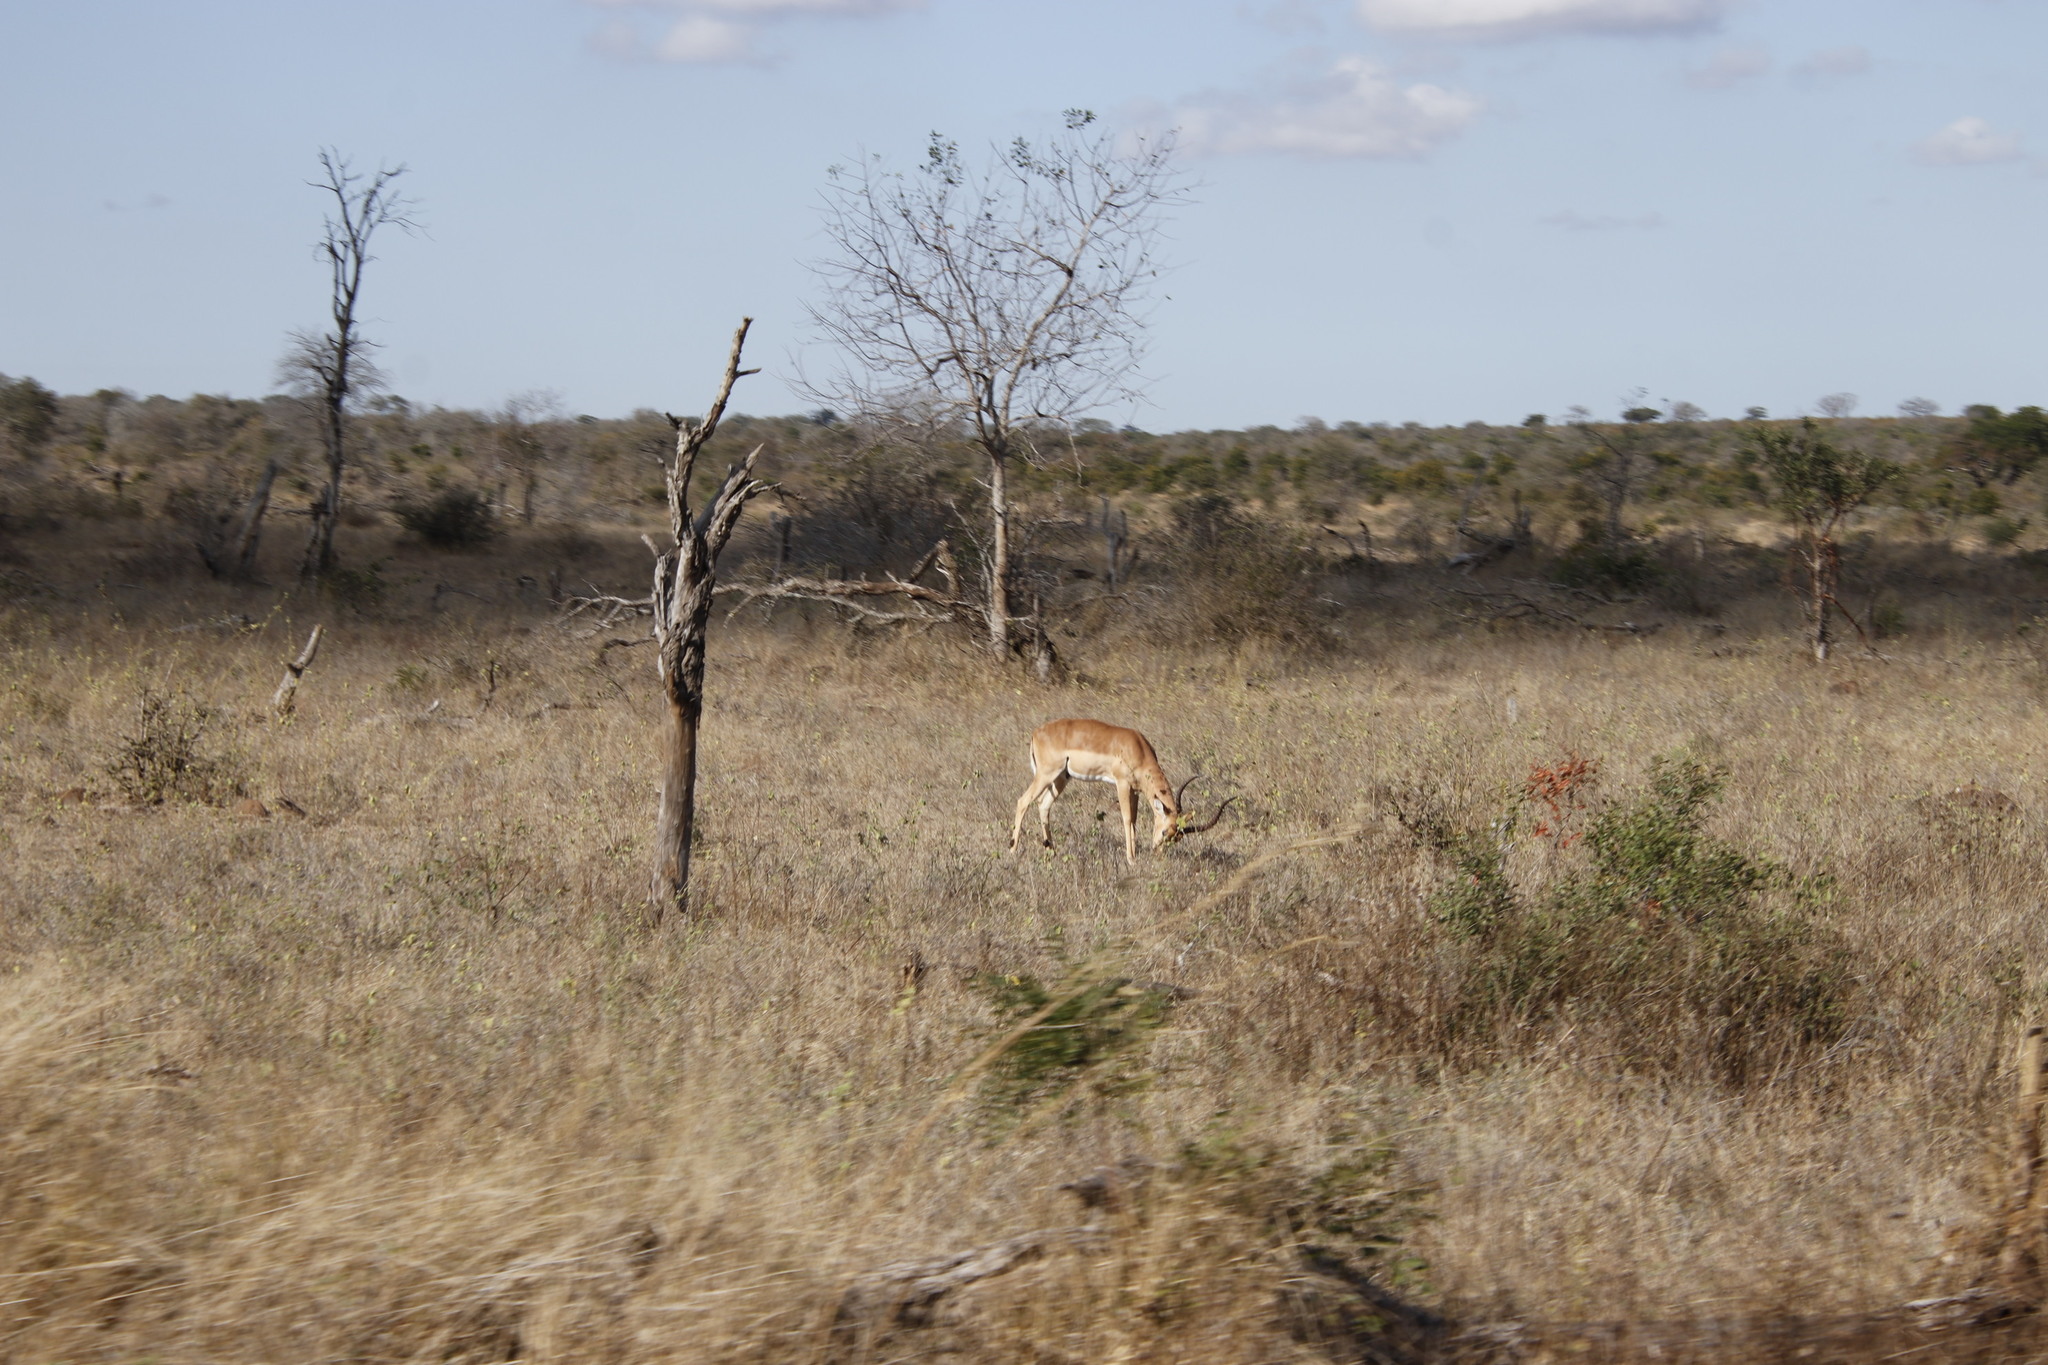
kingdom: Animalia
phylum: Chordata
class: Mammalia
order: Artiodactyla
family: Bovidae
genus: Aepyceros
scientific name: Aepyceros melampus
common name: Impala
